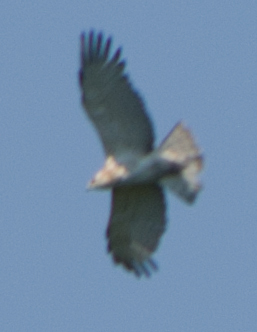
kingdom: Animalia
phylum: Chordata
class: Aves
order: Accipitriformes
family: Accipitridae
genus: Circaetus
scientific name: Circaetus gallicus
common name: Short-toed snake eagle
